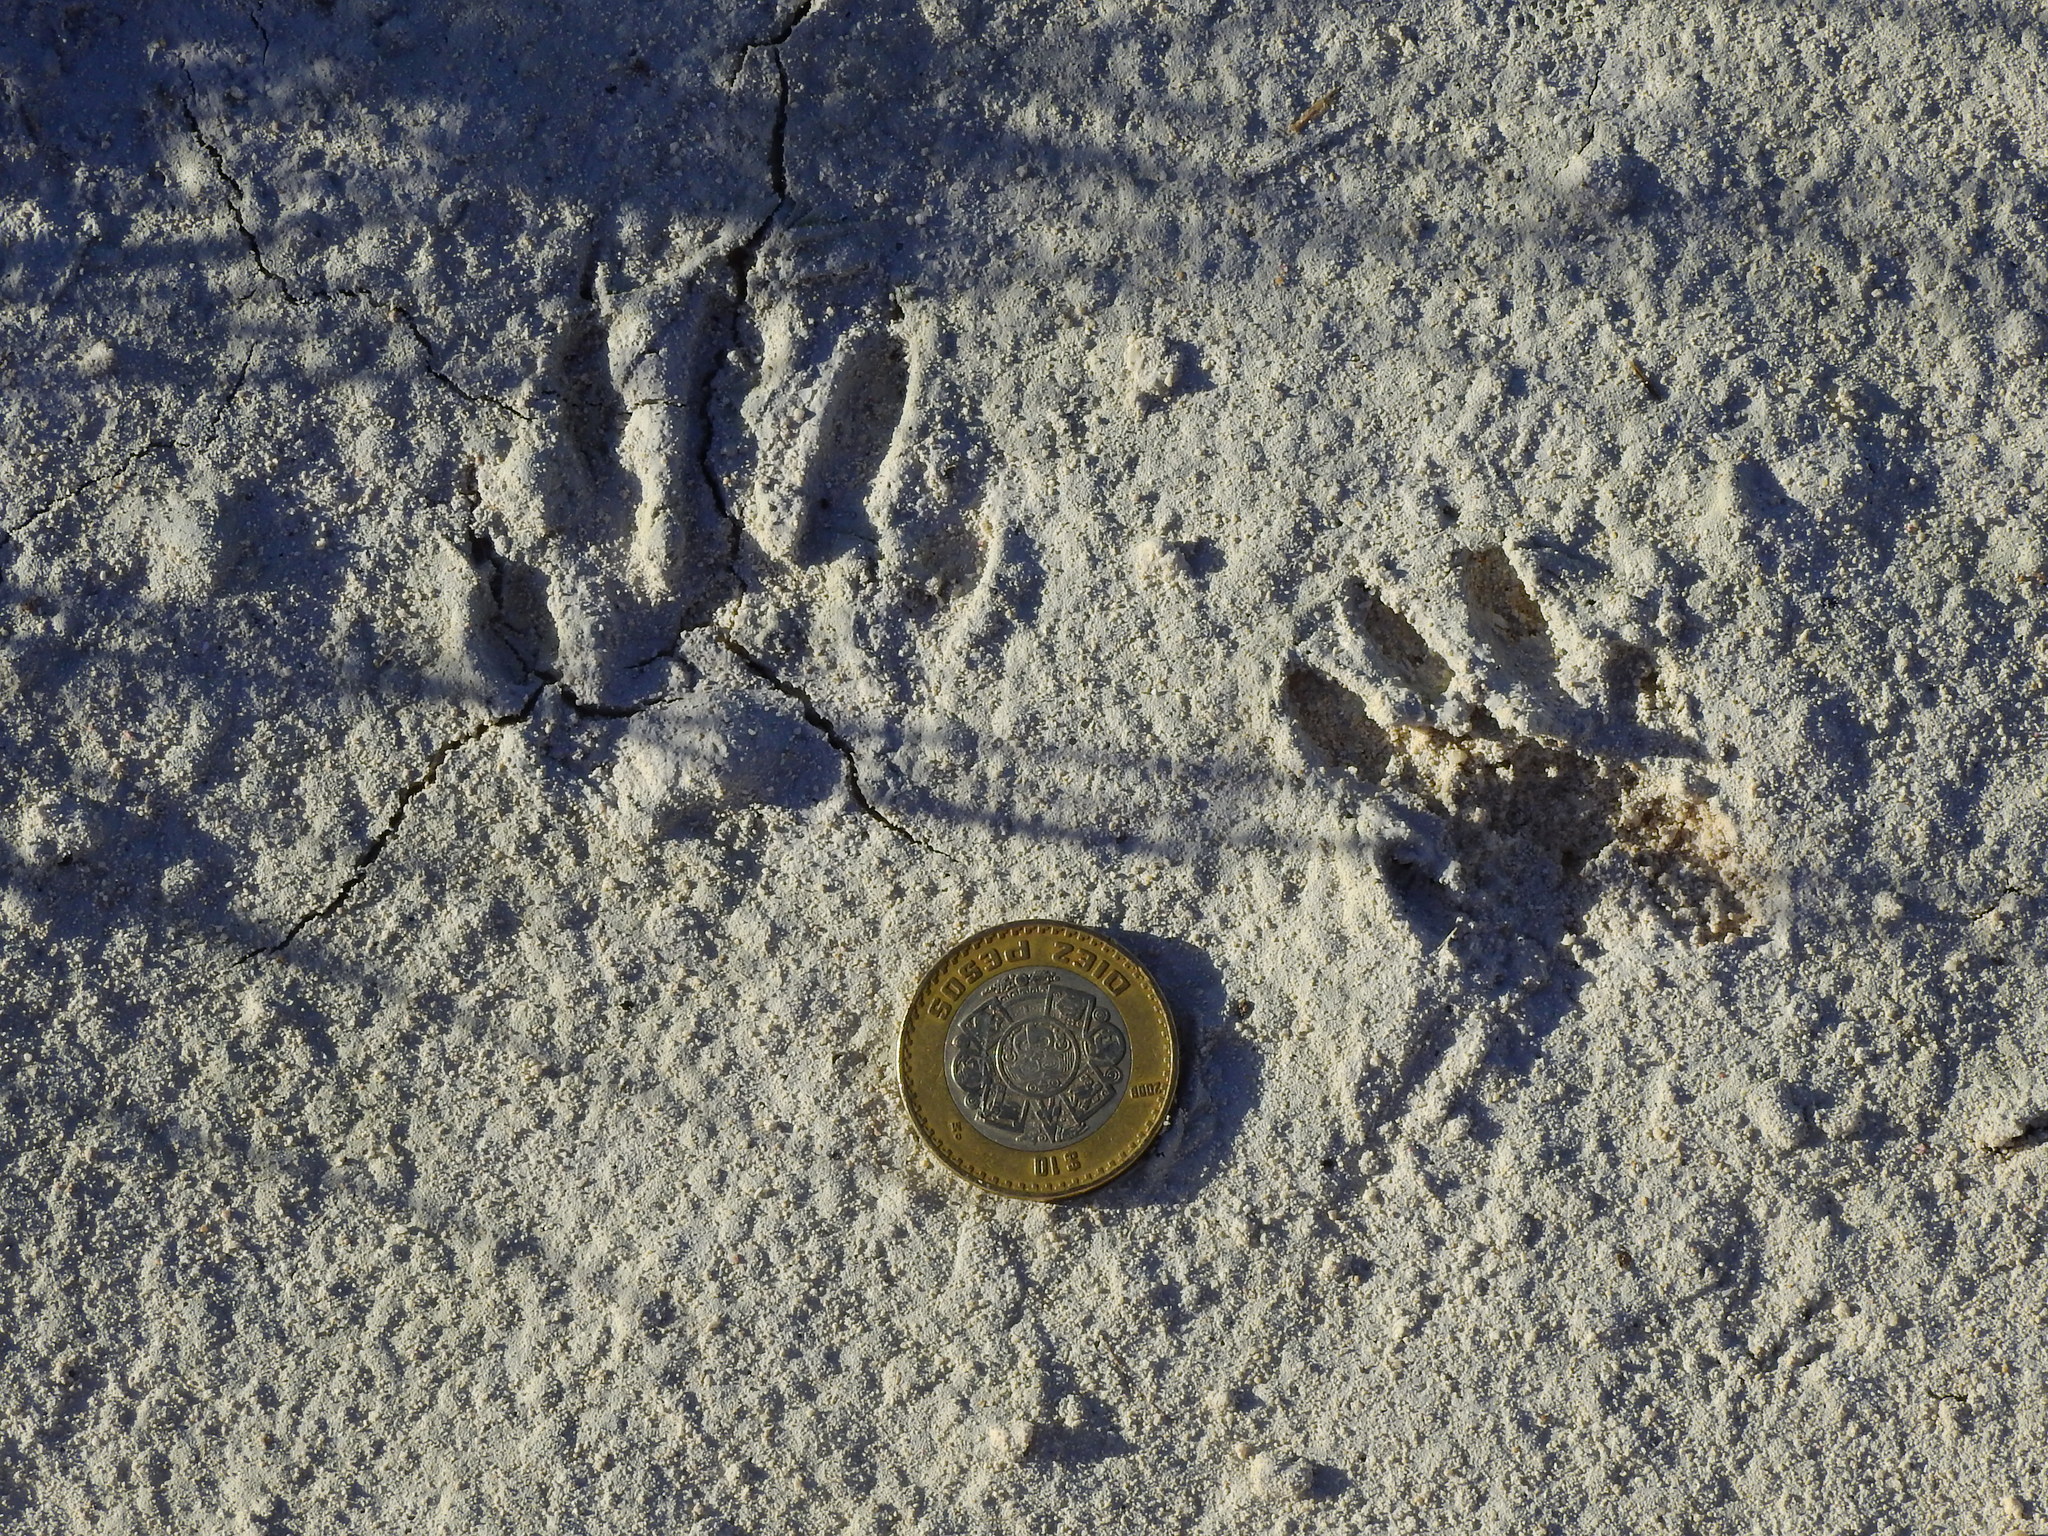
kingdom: Animalia
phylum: Chordata
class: Mammalia
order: Carnivora
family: Procyonidae
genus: Procyon
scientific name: Procyon lotor
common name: Raccoon
